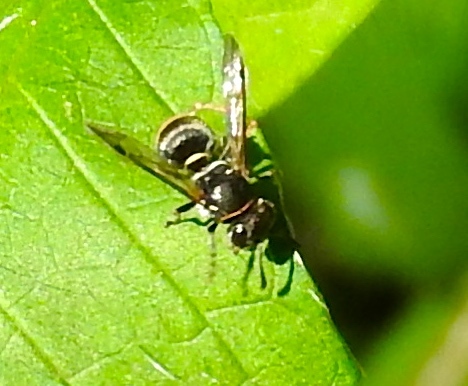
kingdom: Animalia
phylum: Arthropoda
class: Insecta
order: Hymenoptera
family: Vespidae
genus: Brachygastra
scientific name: Brachygastra azteca
